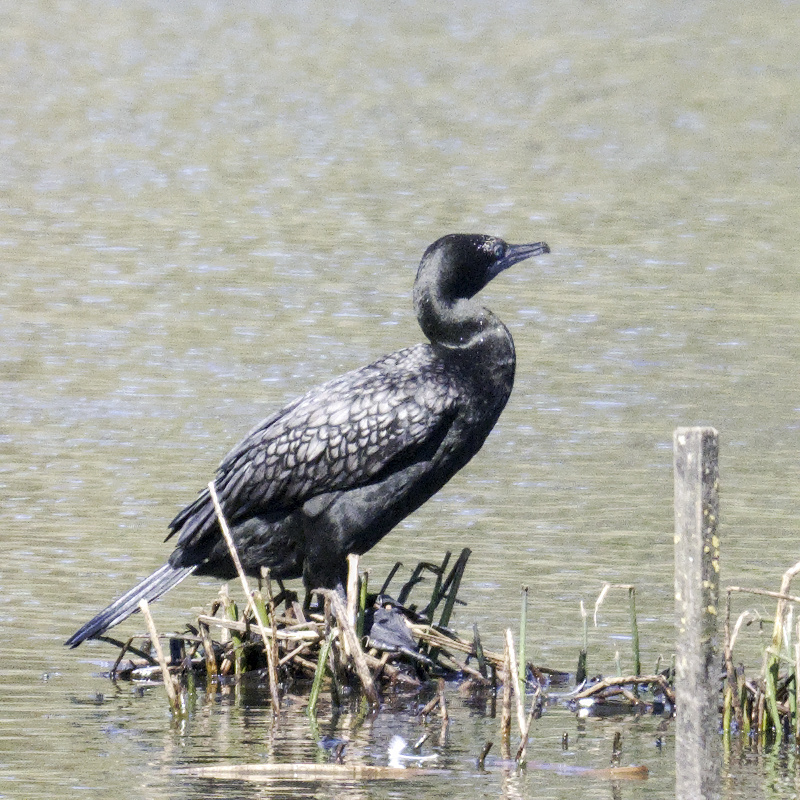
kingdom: Animalia
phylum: Chordata
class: Aves
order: Suliformes
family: Phalacrocoracidae
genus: Phalacrocorax
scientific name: Phalacrocorax sulcirostris
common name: Little black cormorant
